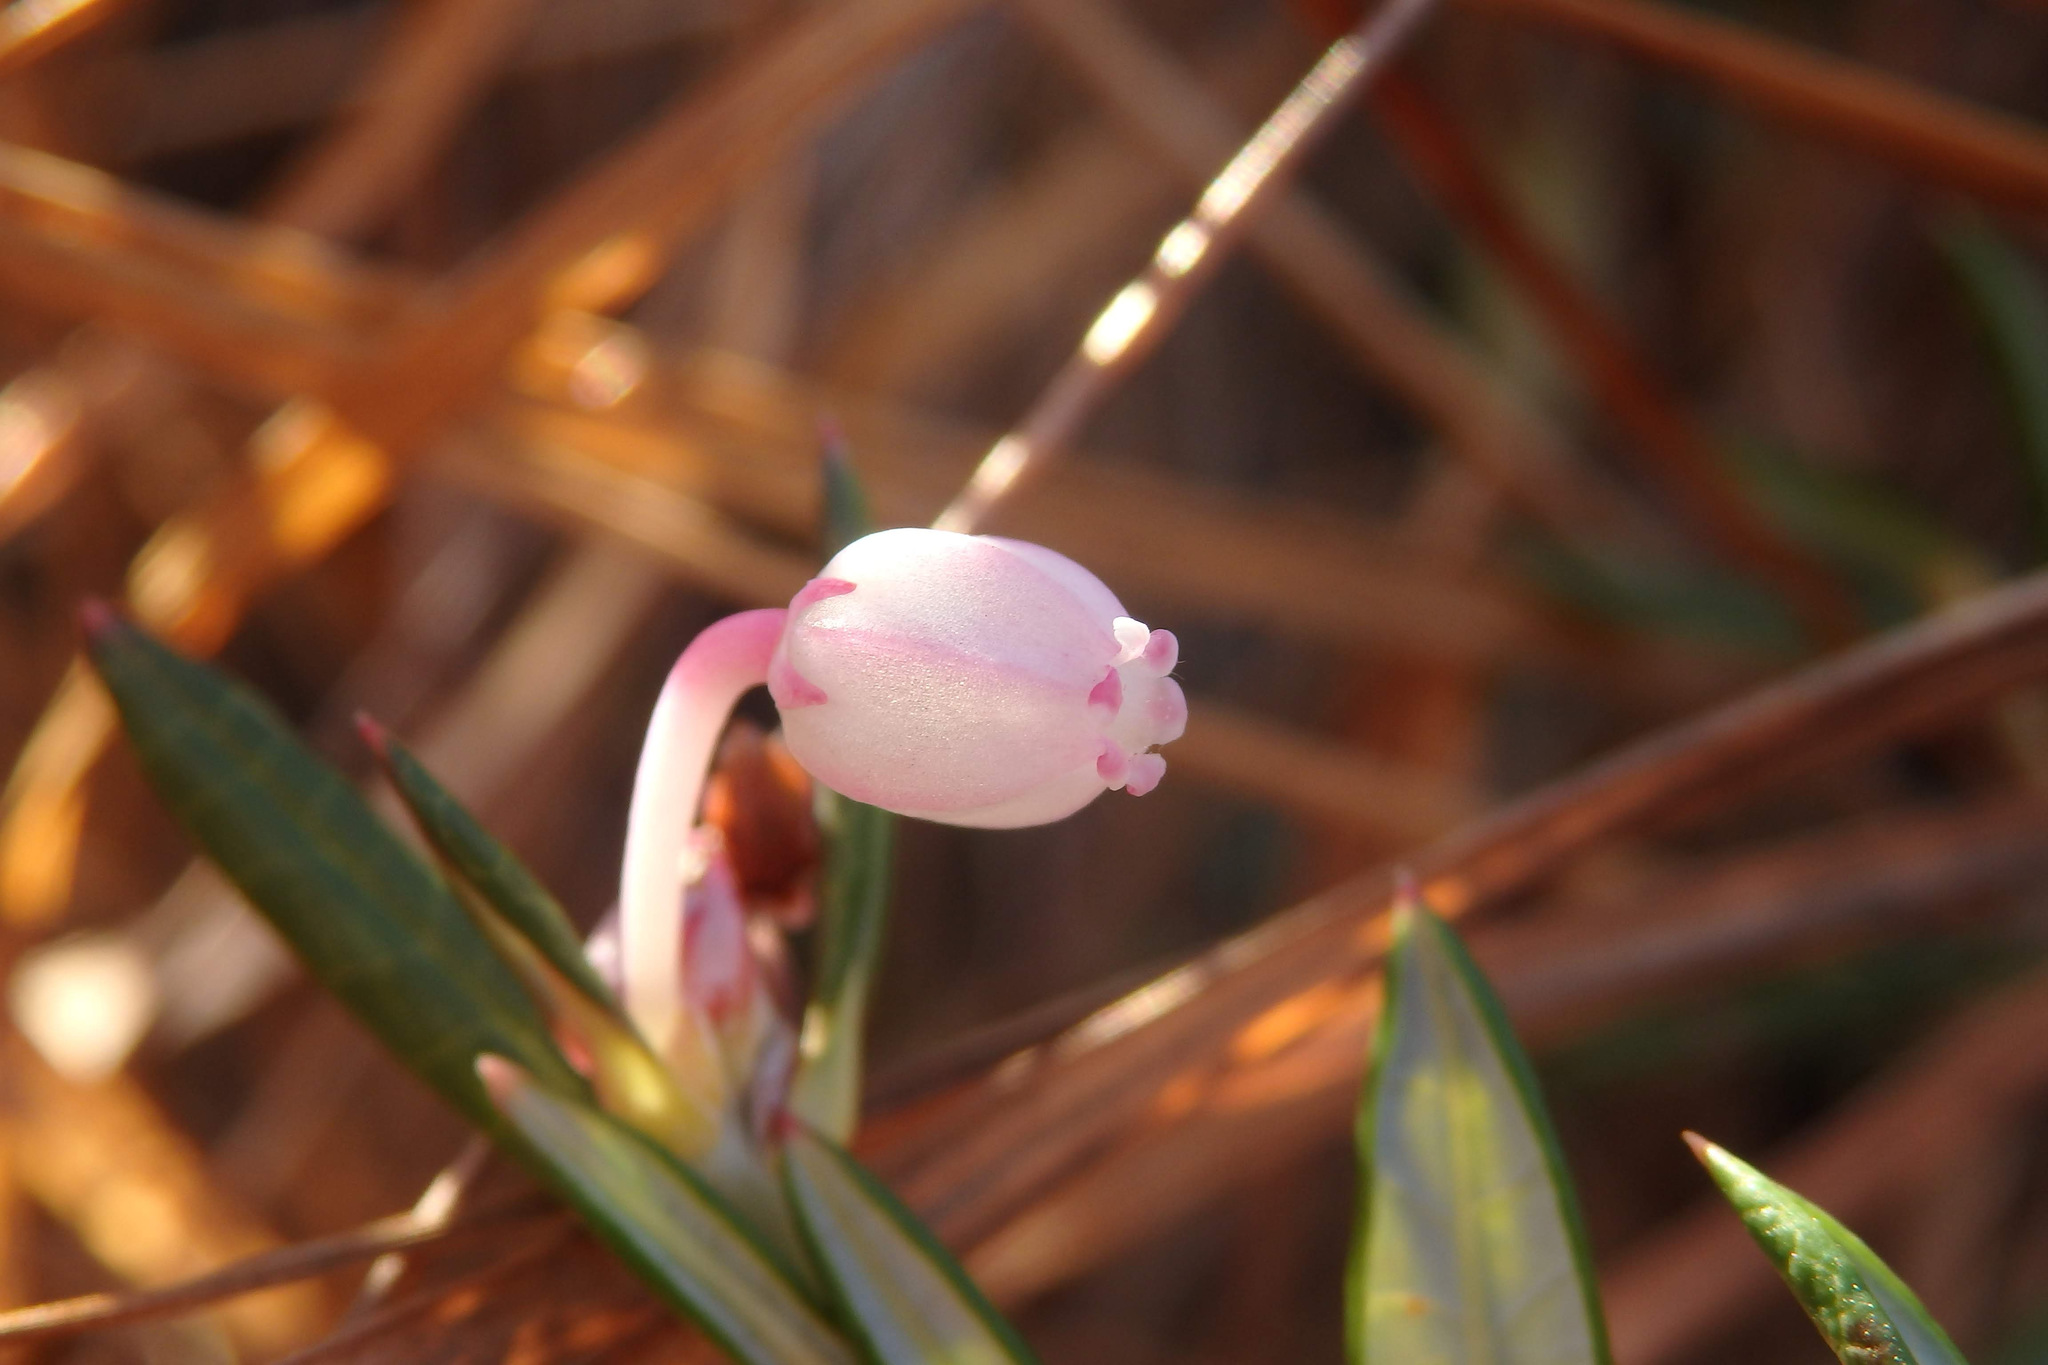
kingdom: Plantae
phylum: Tracheophyta
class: Magnoliopsida
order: Ericales
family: Ericaceae
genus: Andromeda
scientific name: Andromeda polifolia
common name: Bog-rosemary
